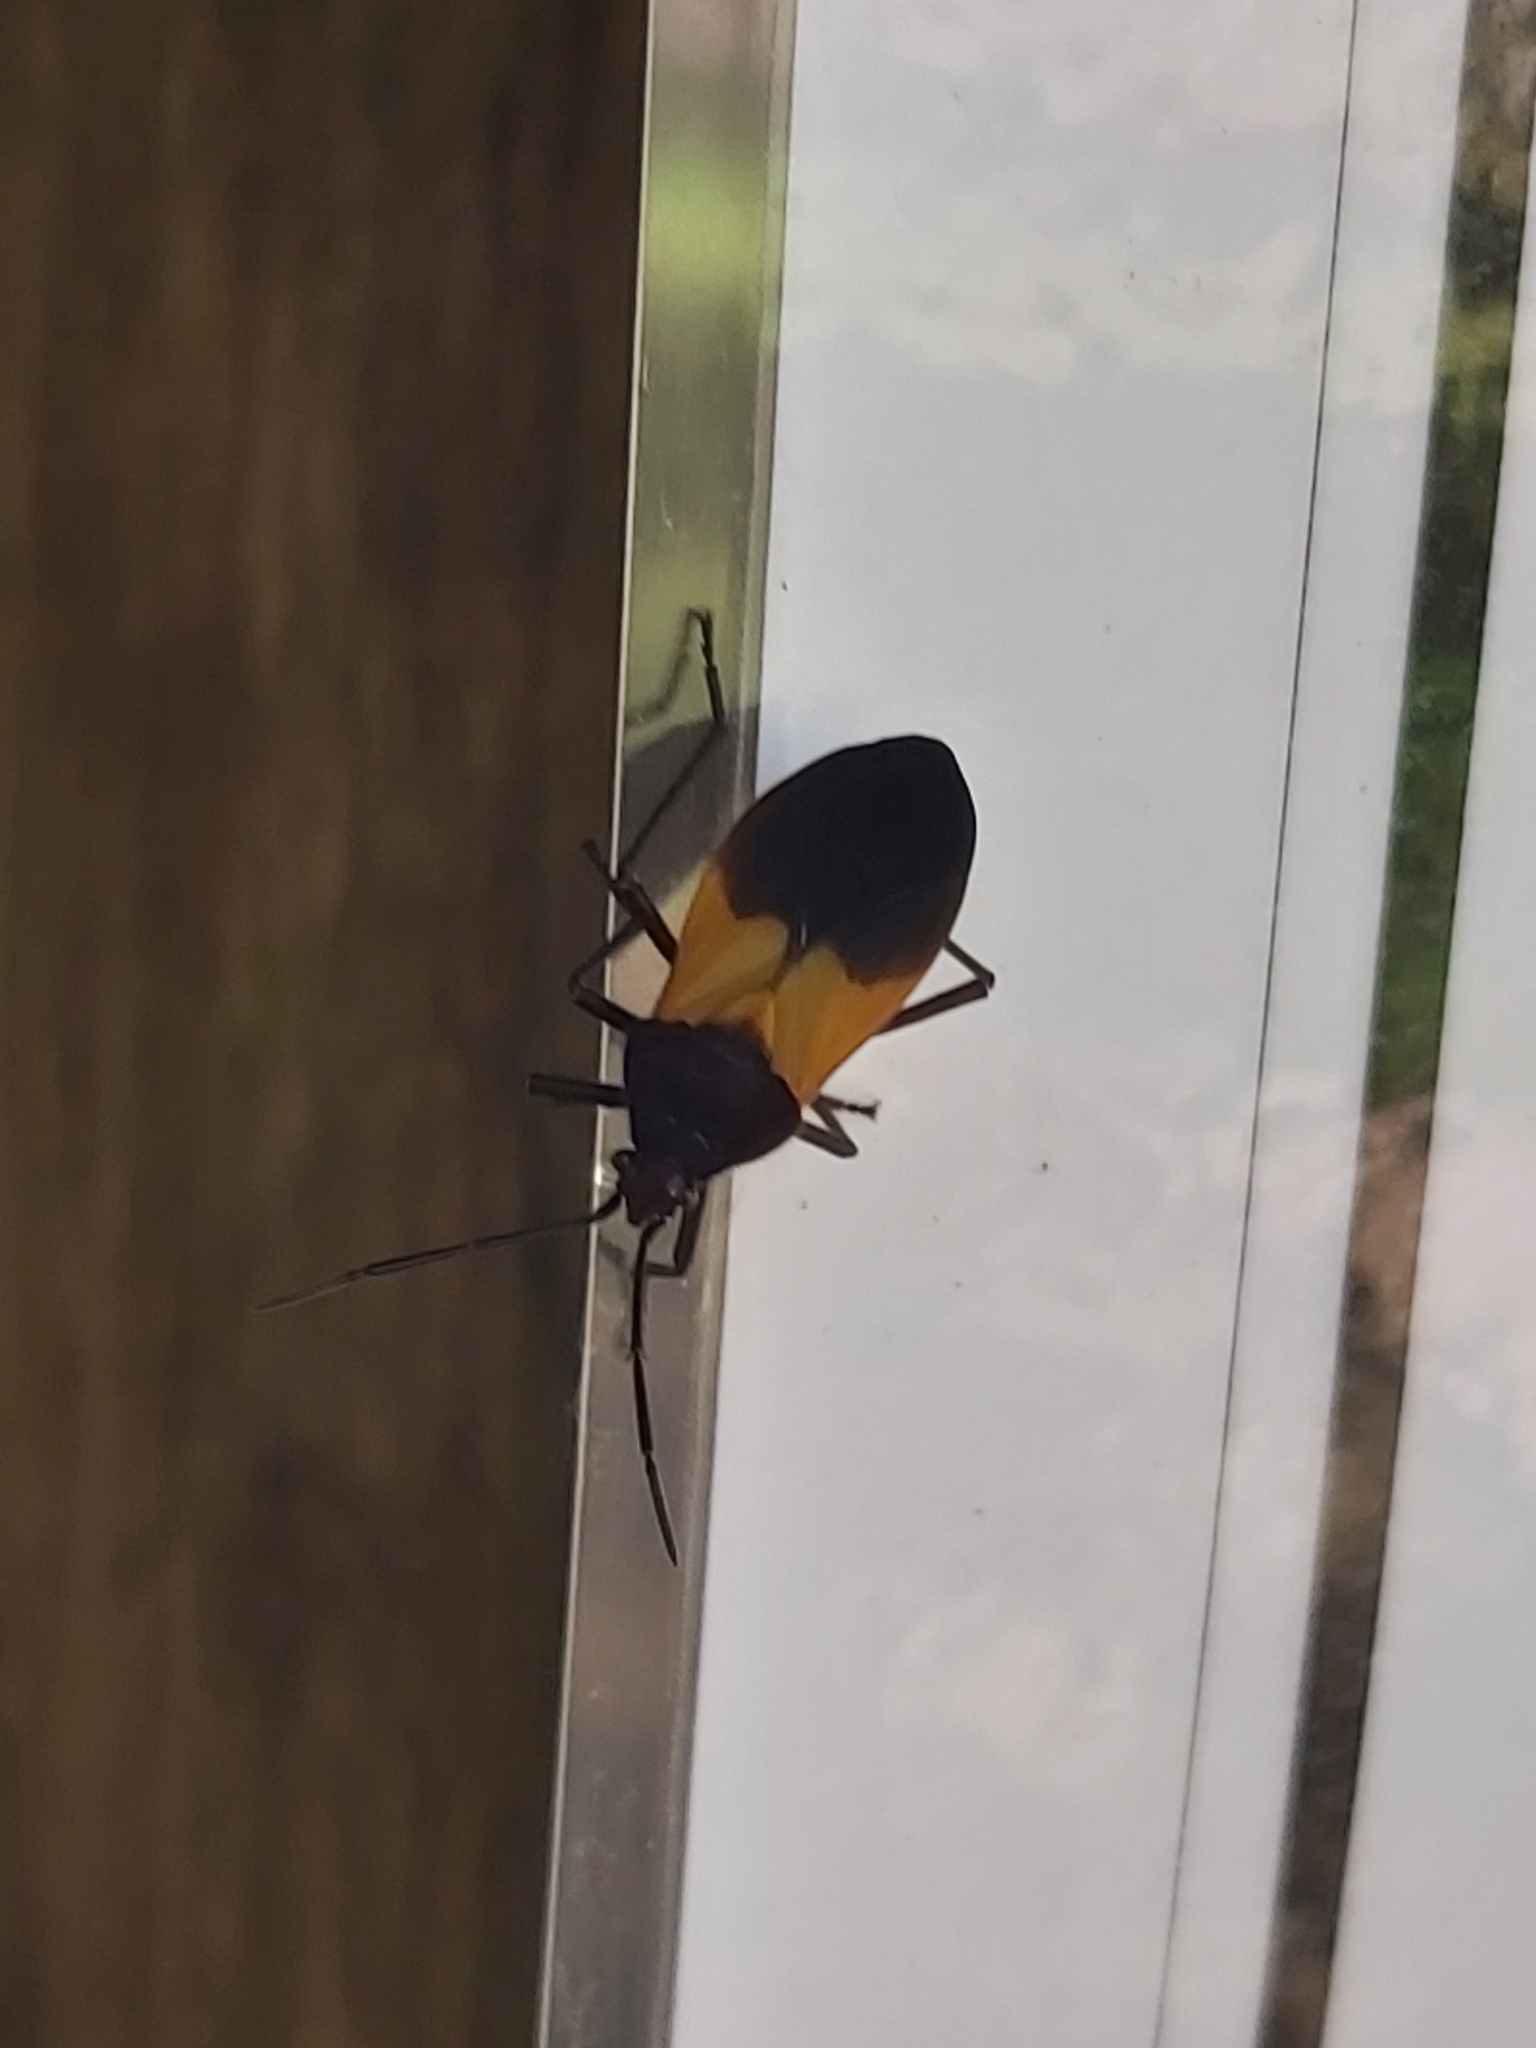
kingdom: Animalia
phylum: Arthropoda
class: Insecta
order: Hemiptera
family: Lygaeidae
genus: Oncopeltus
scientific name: Oncopeltus sordidus
